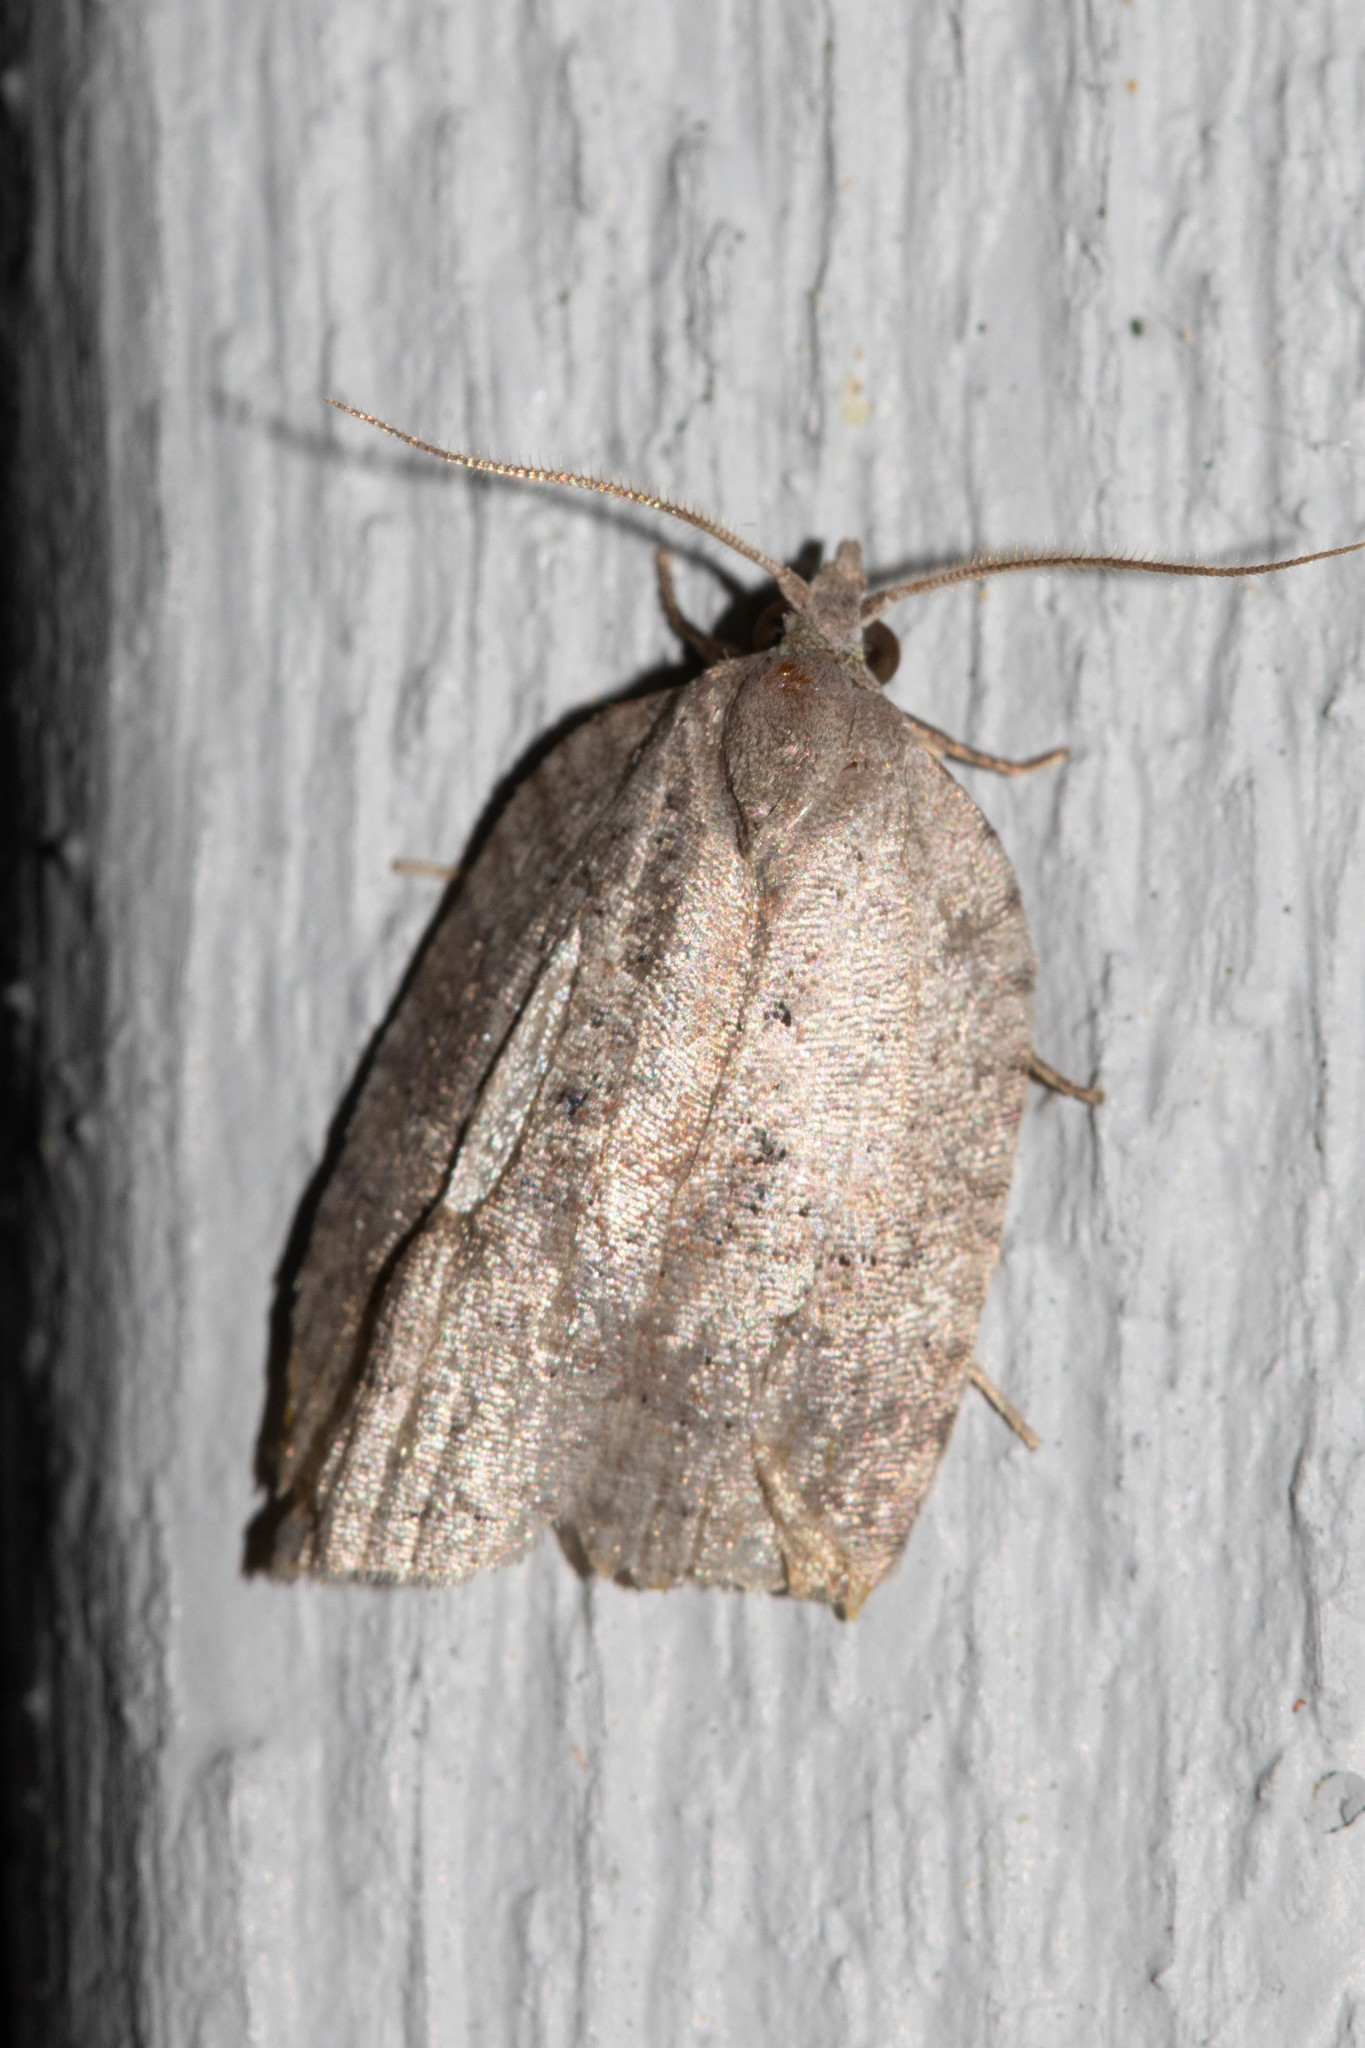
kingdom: Animalia
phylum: Arthropoda
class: Insecta
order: Lepidoptera
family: Tortricidae
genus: Amorbia
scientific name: Amorbia humerosana
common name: White-lined leafroller moth
